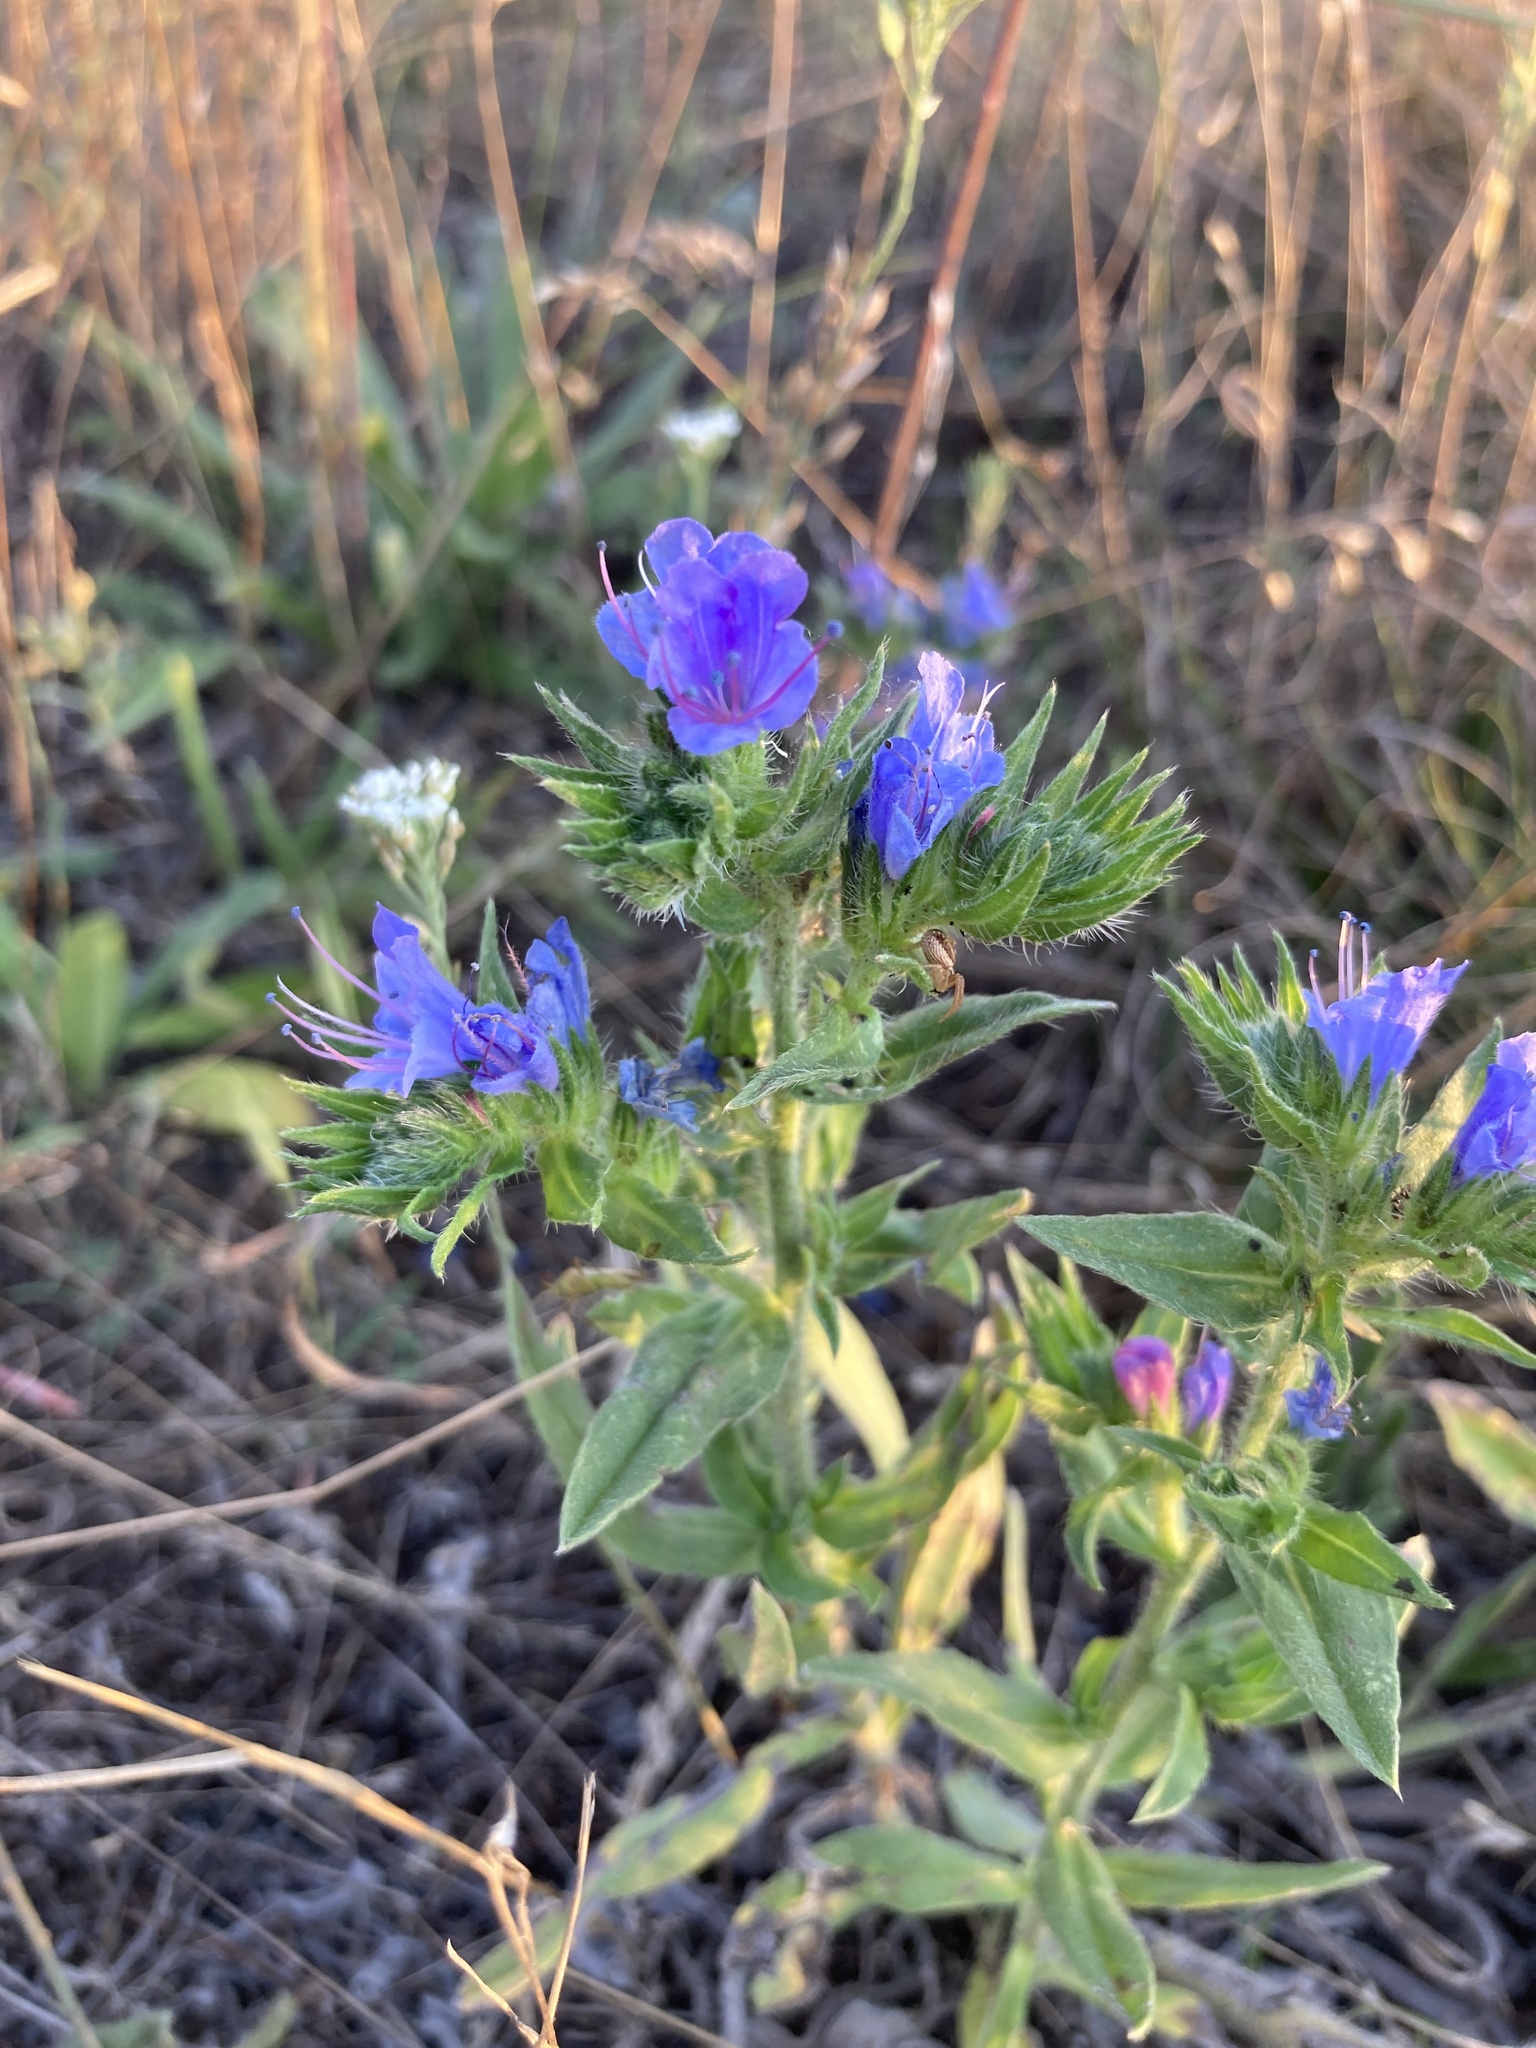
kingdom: Plantae
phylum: Tracheophyta
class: Magnoliopsida
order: Boraginales
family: Boraginaceae
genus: Echium
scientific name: Echium vulgare
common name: Common viper's bugloss
